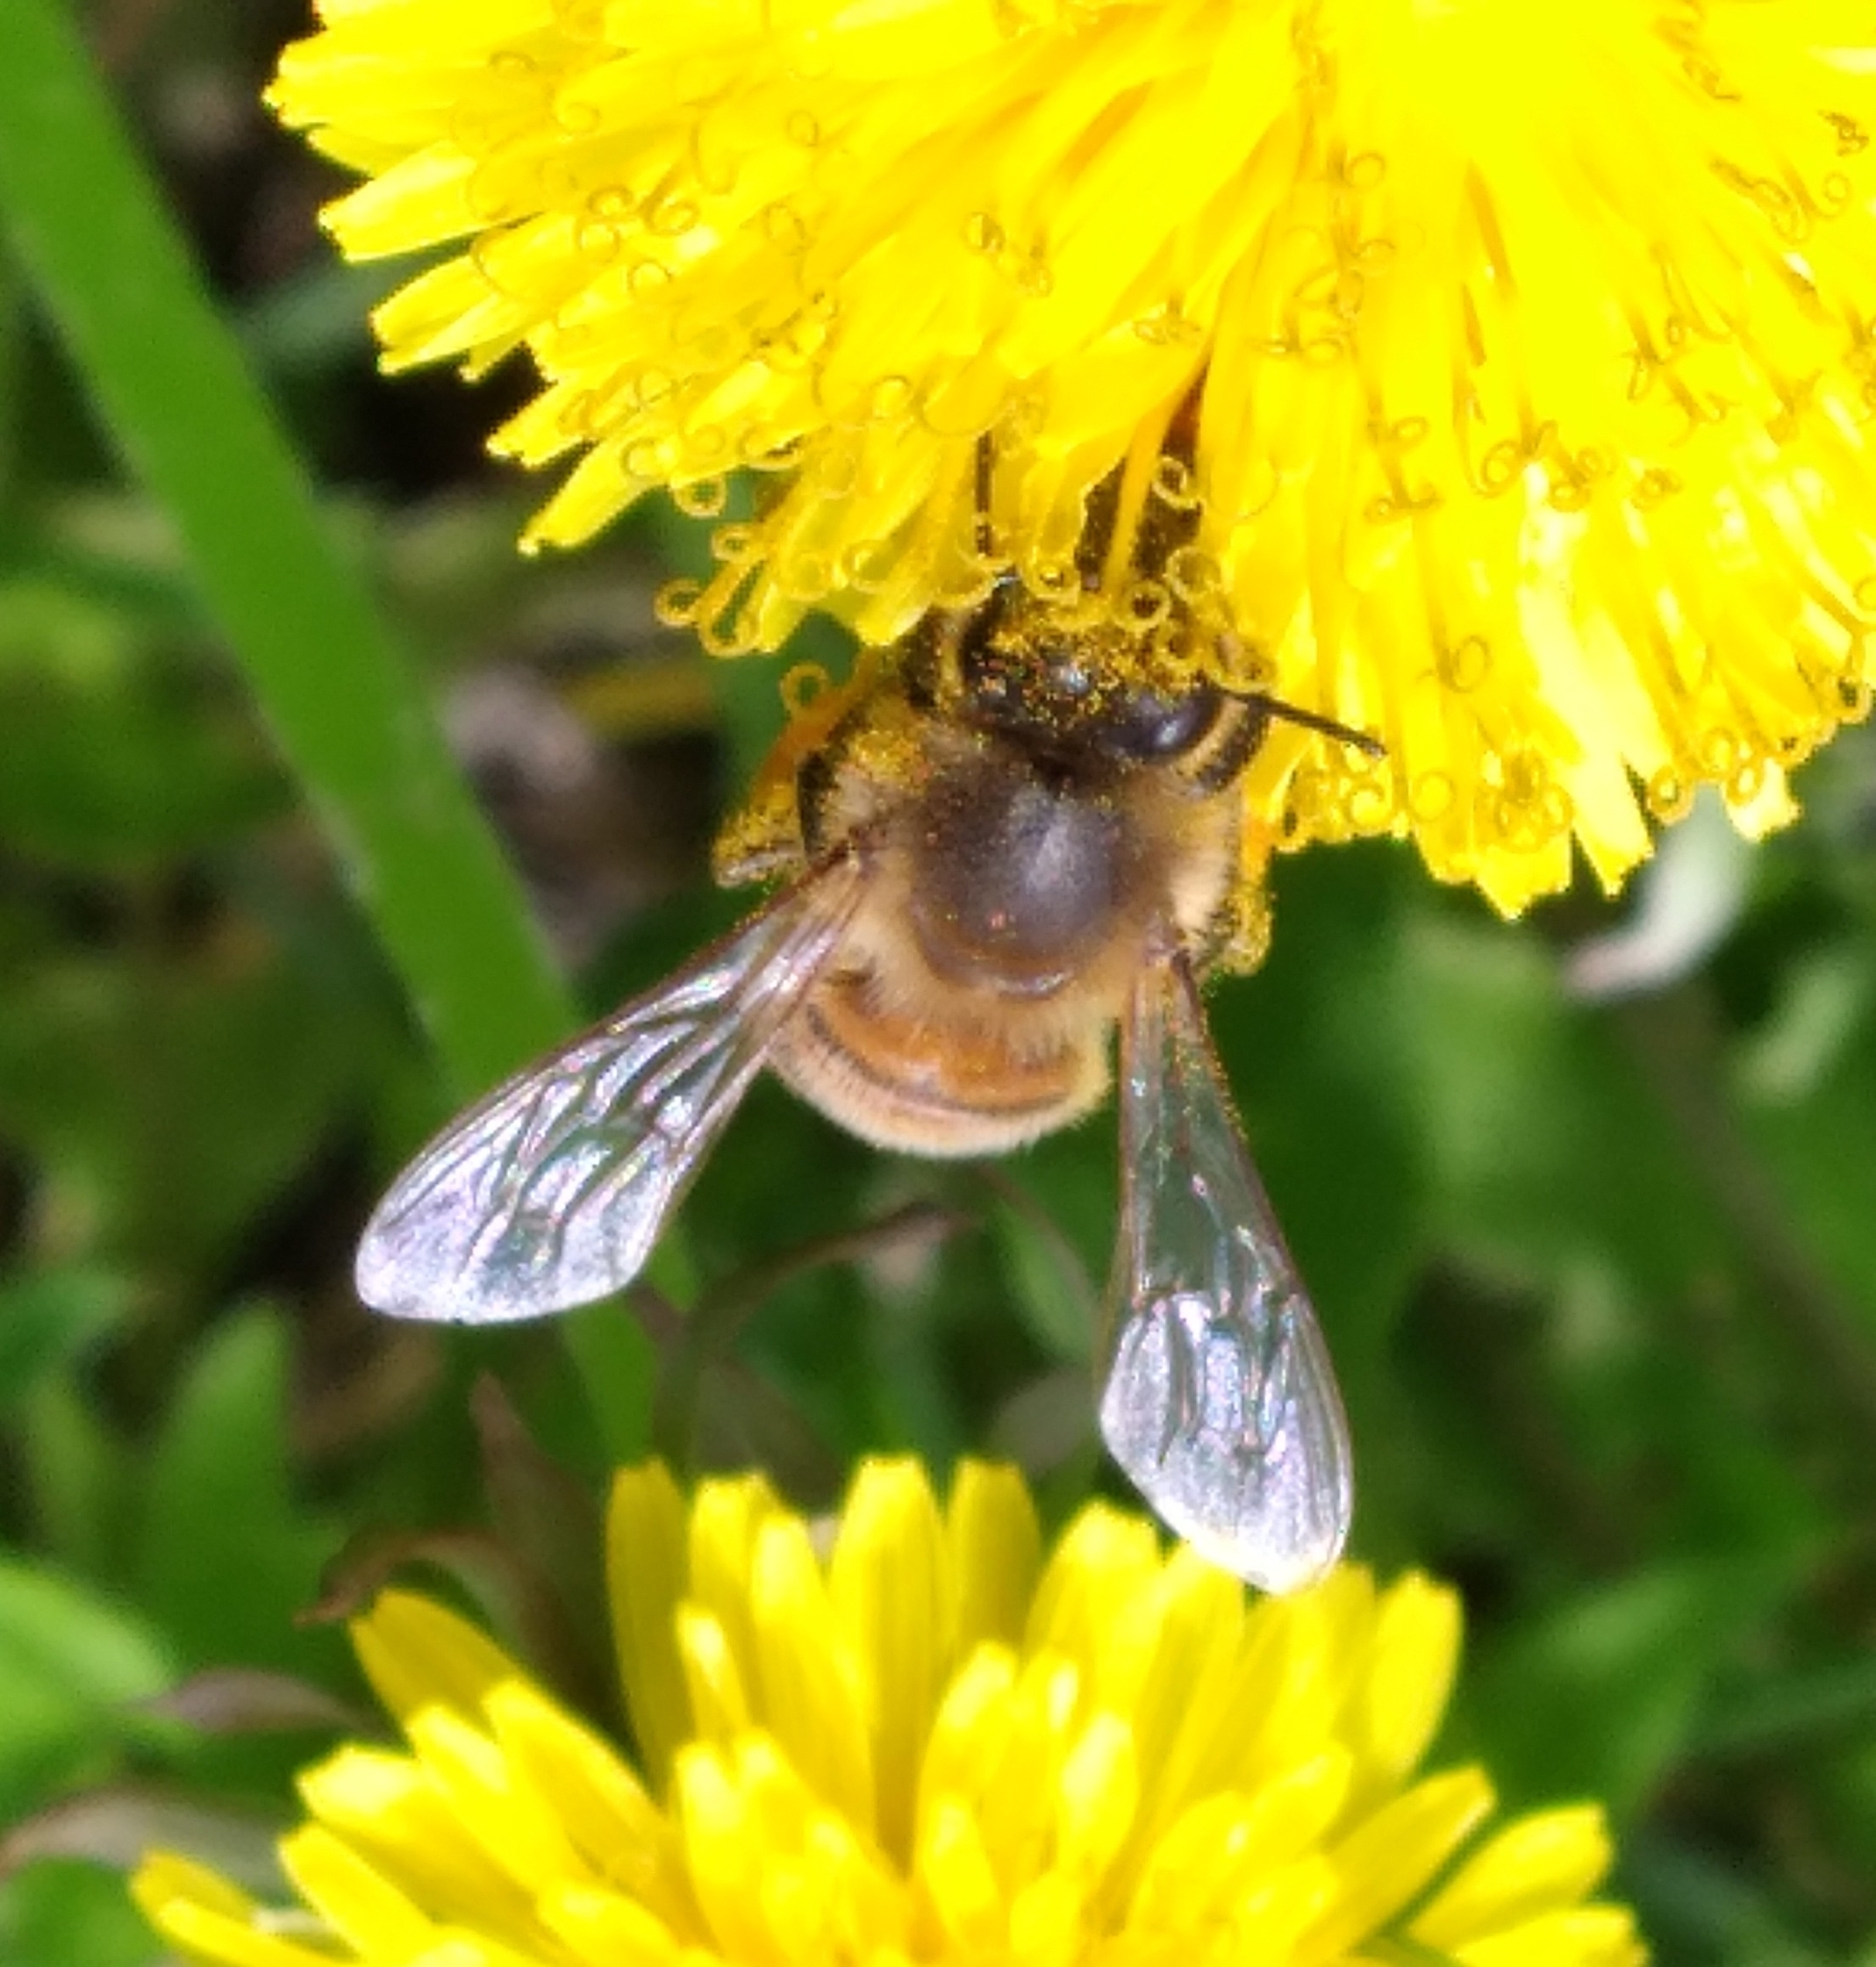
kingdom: Animalia
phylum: Arthropoda
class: Insecta
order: Hymenoptera
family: Apidae
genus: Apis
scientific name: Apis mellifera
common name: Honey bee
